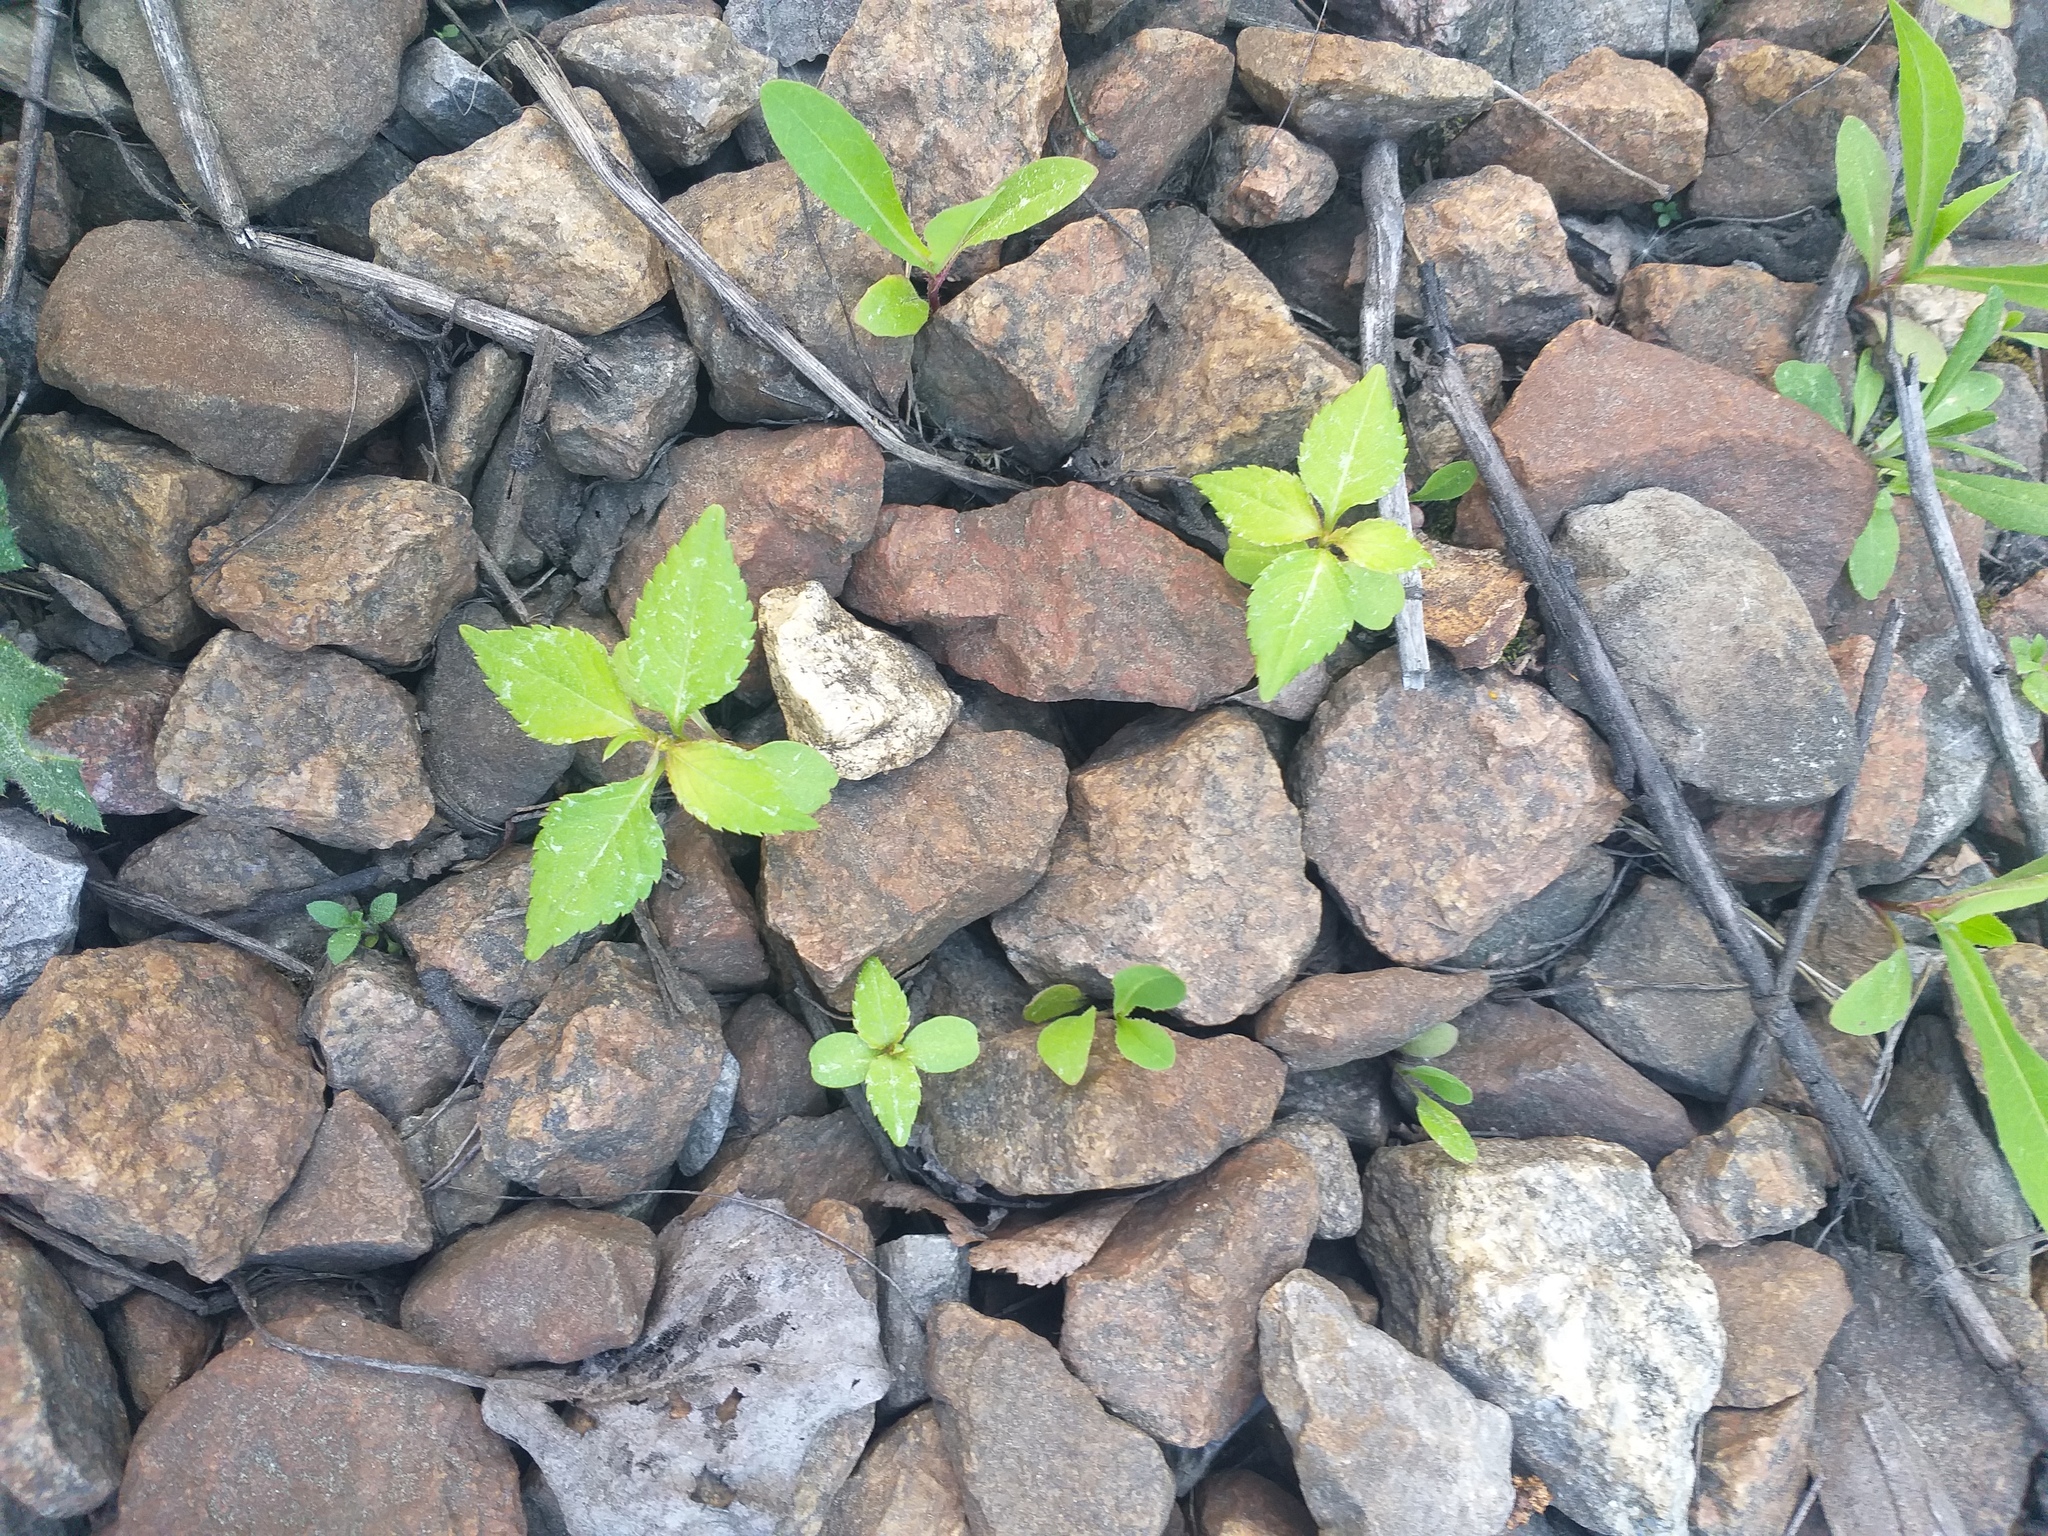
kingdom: Plantae
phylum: Tracheophyta
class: Magnoliopsida
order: Ericales
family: Balsaminaceae
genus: Impatiens
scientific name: Impatiens parviflora
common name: Small balsam
